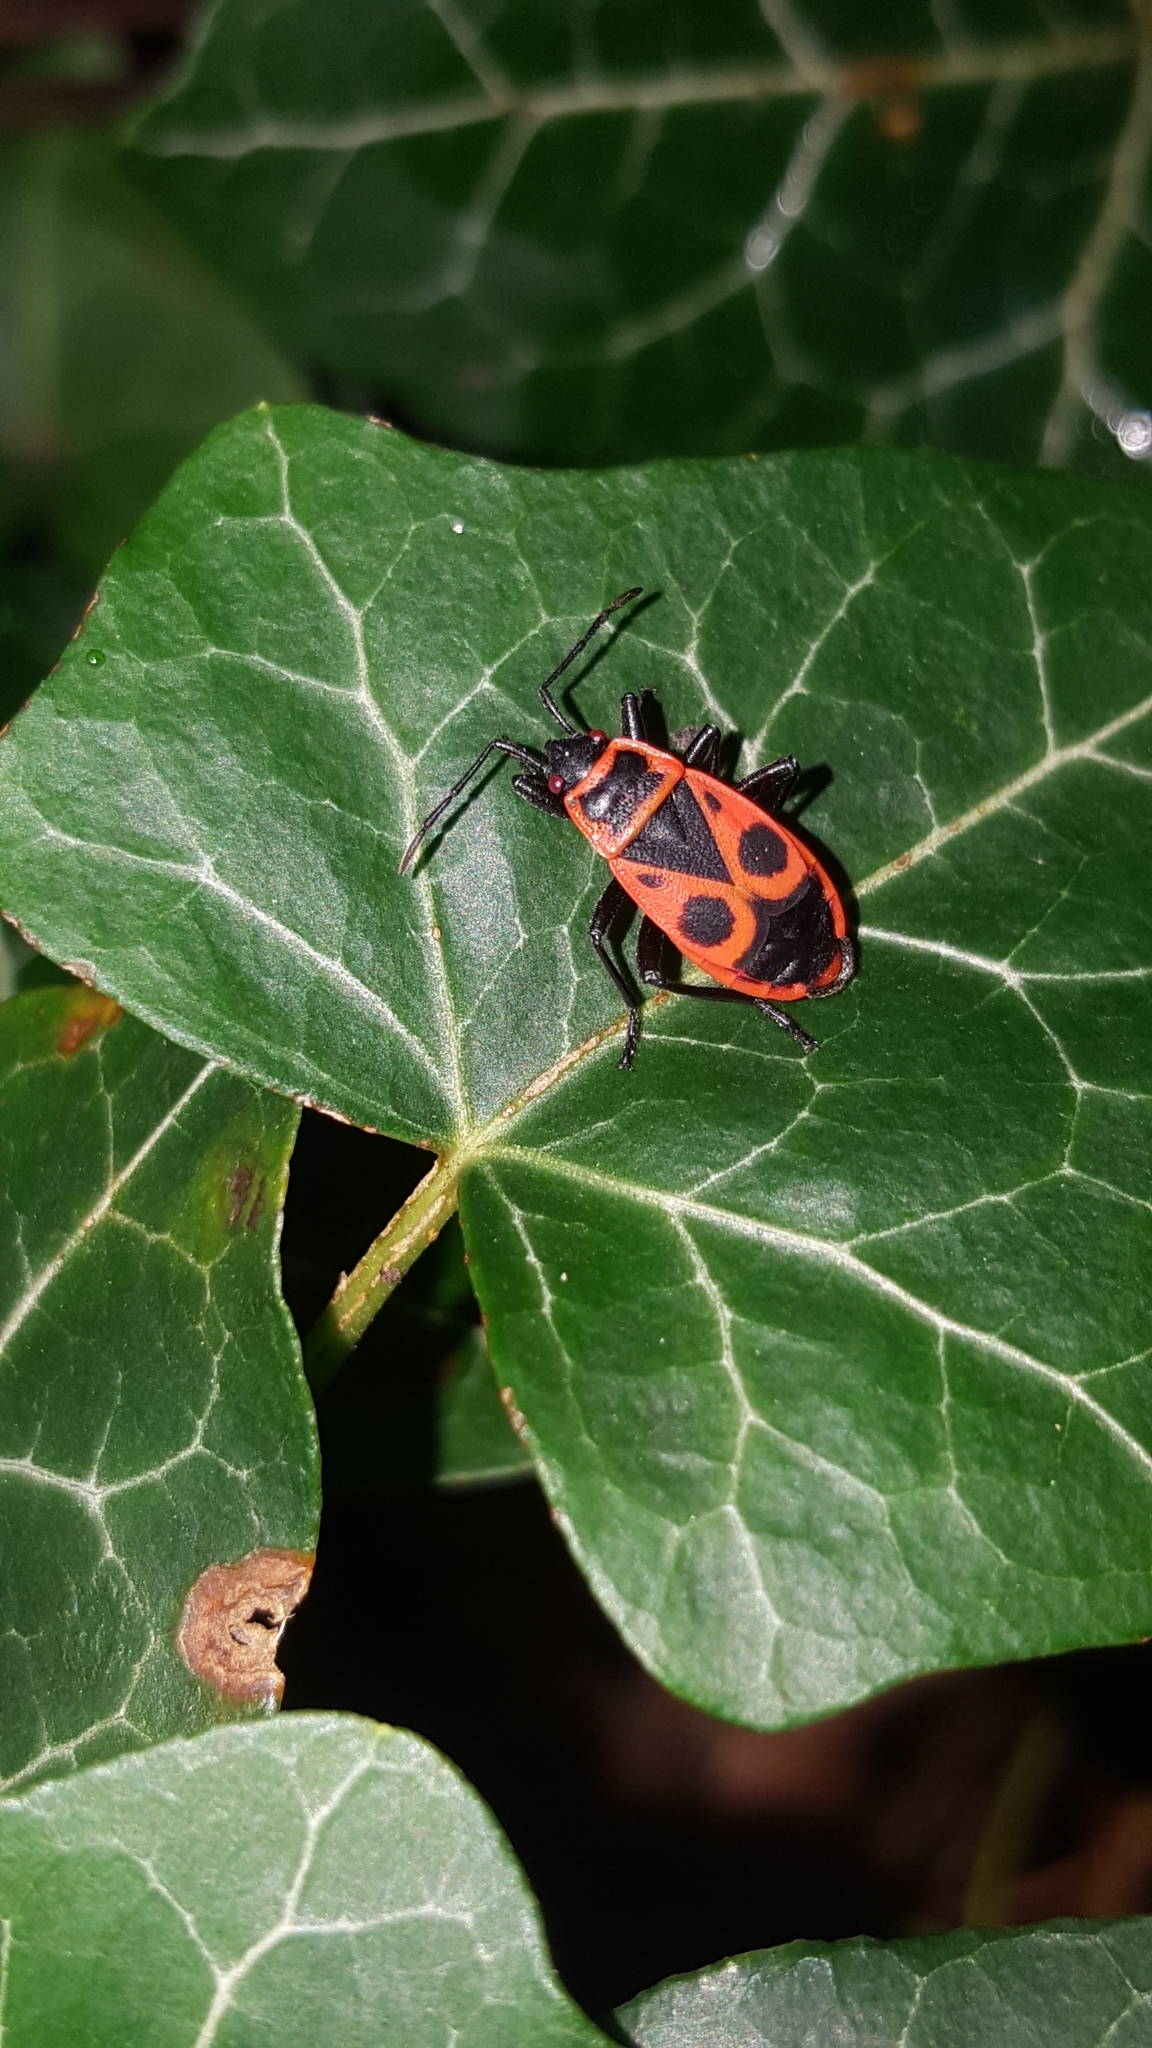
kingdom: Animalia
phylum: Arthropoda
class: Insecta
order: Hemiptera
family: Pyrrhocoridae
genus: Pyrrhocoris
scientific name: Pyrrhocoris apterus
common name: Firebug
